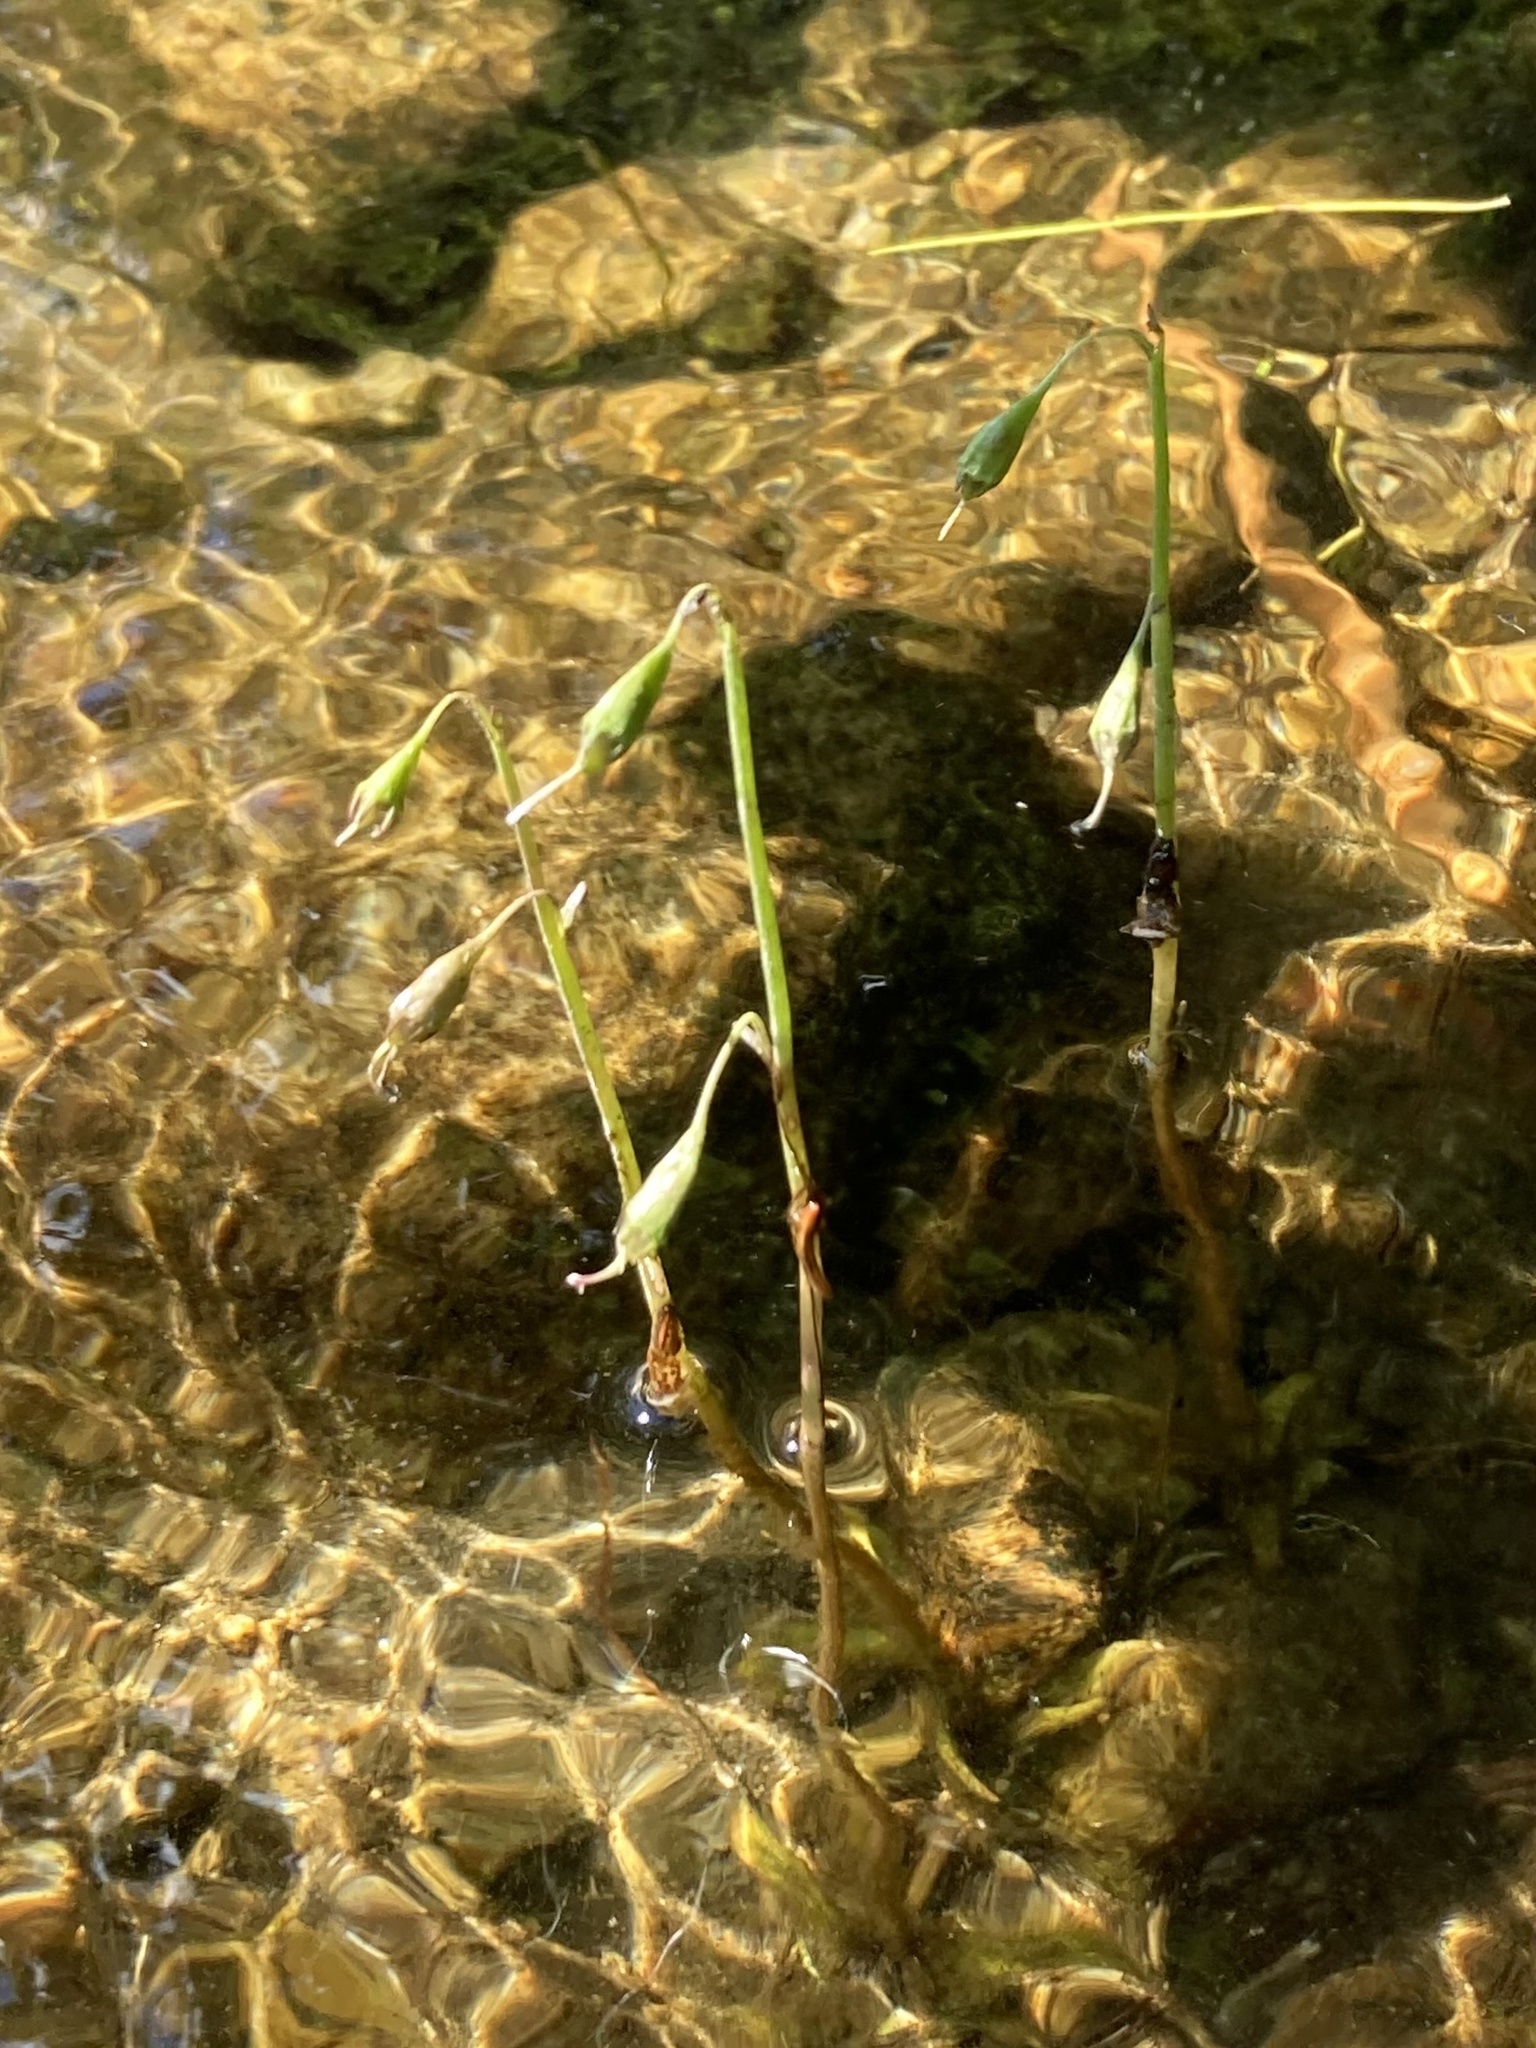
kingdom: Plantae
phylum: Tracheophyta
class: Magnoliopsida
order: Asterales
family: Campanulaceae
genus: Lobelia
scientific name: Lobelia dortmanna
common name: Water lobelia
